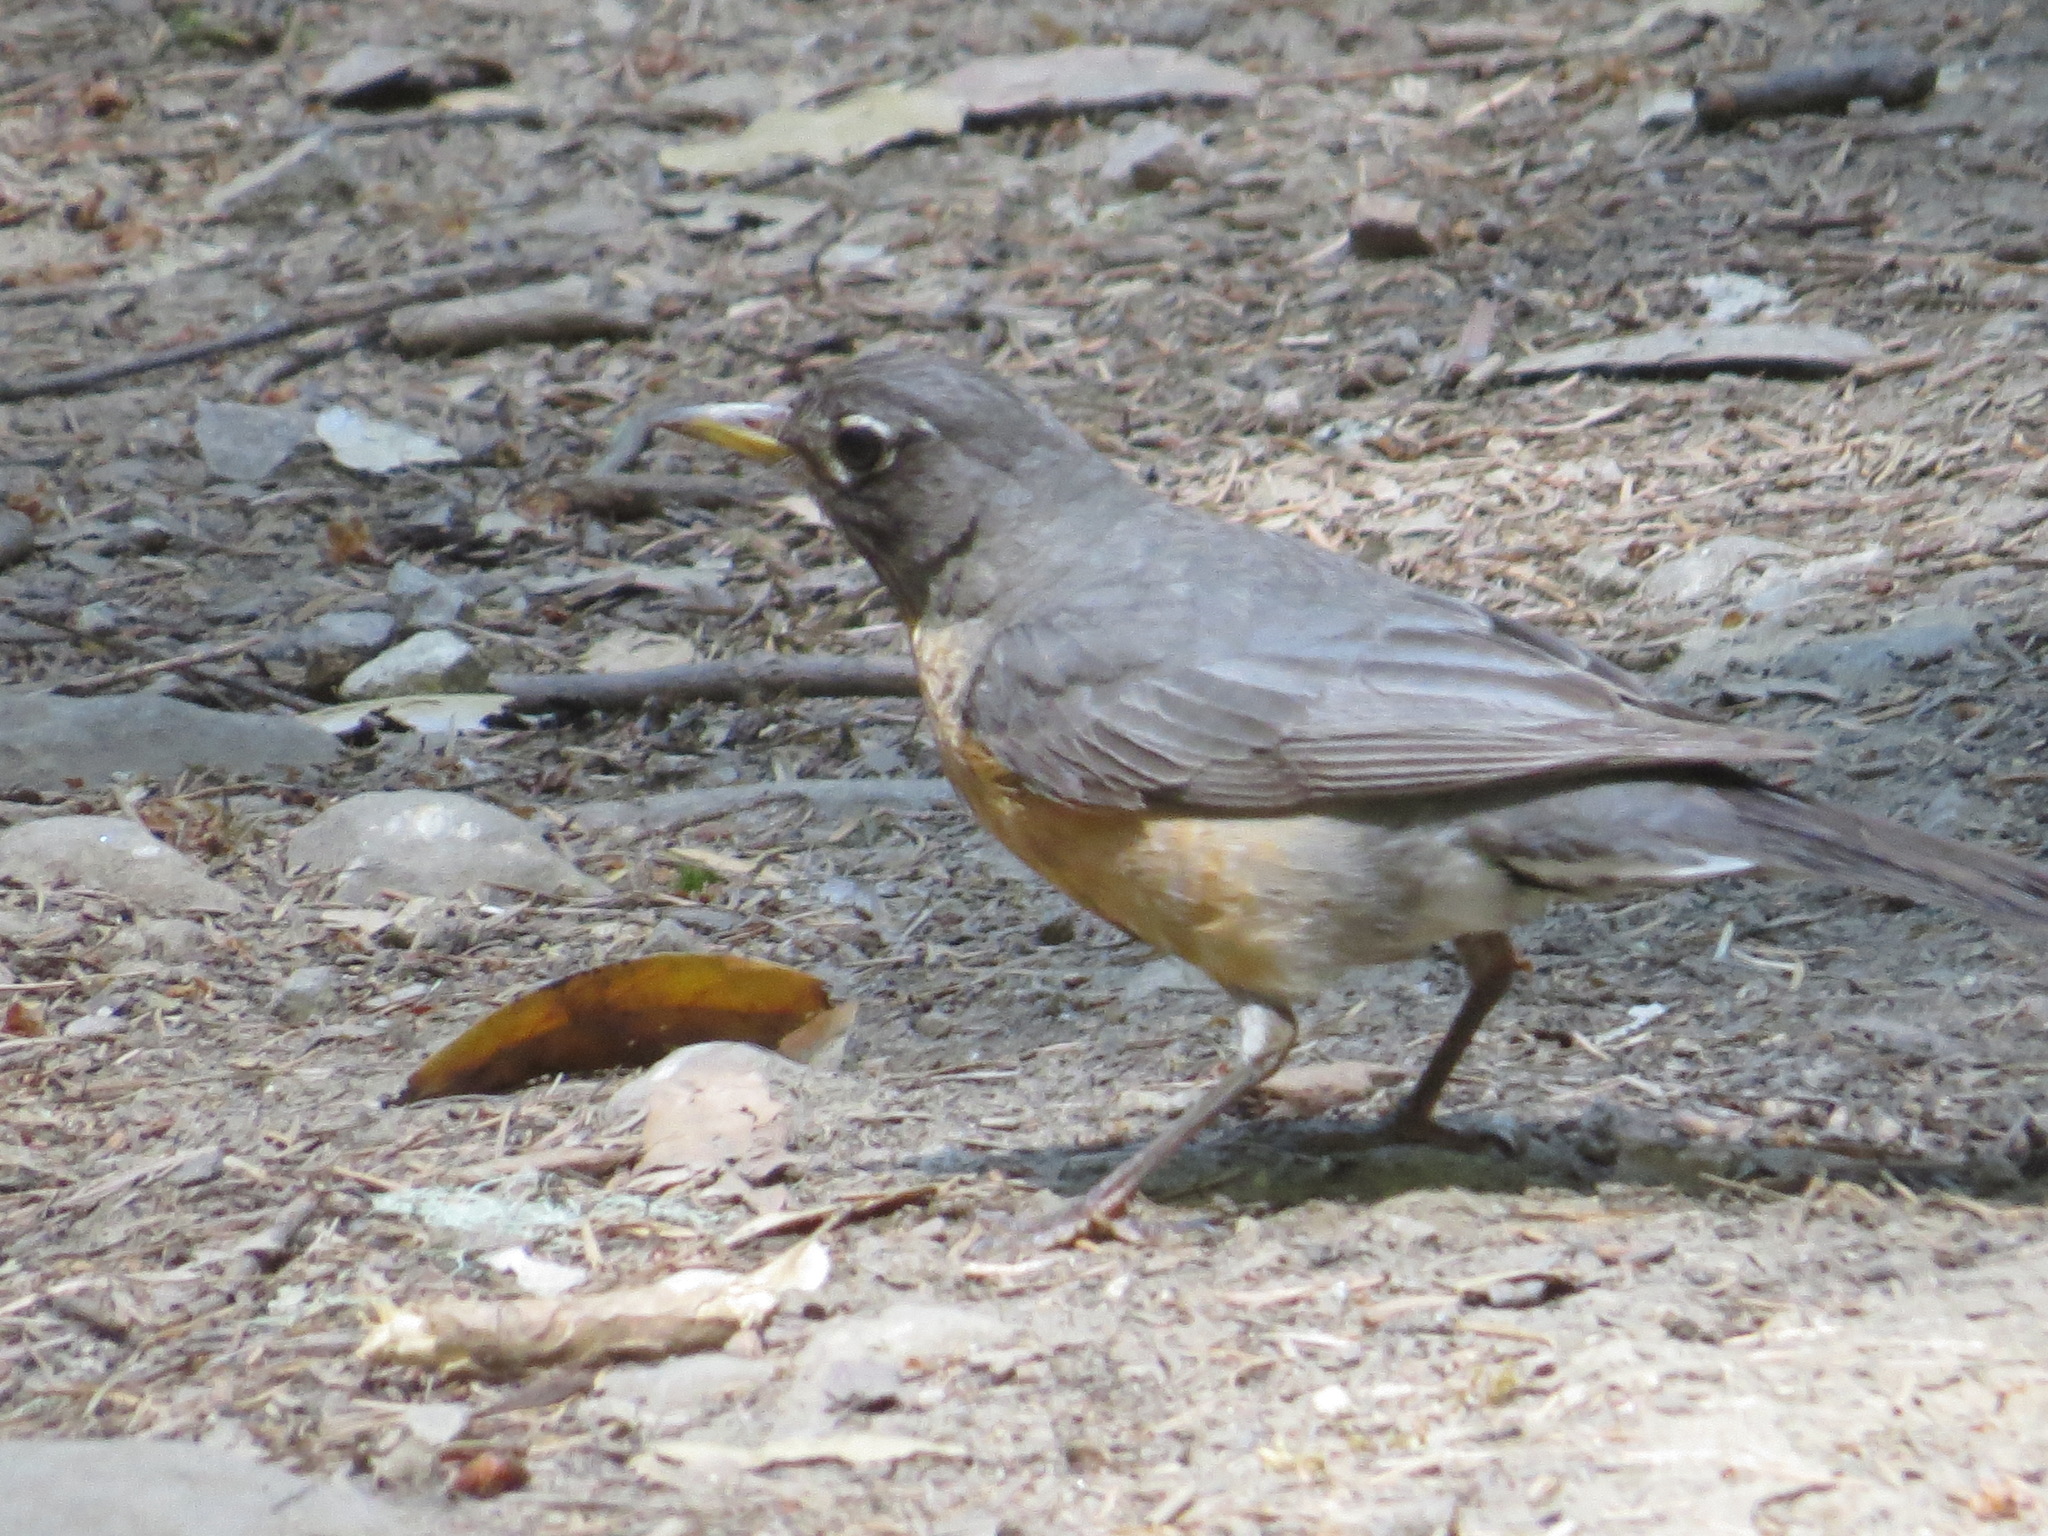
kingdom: Animalia
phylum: Chordata
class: Aves
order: Passeriformes
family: Turdidae
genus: Turdus
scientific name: Turdus migratorius
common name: American robin
